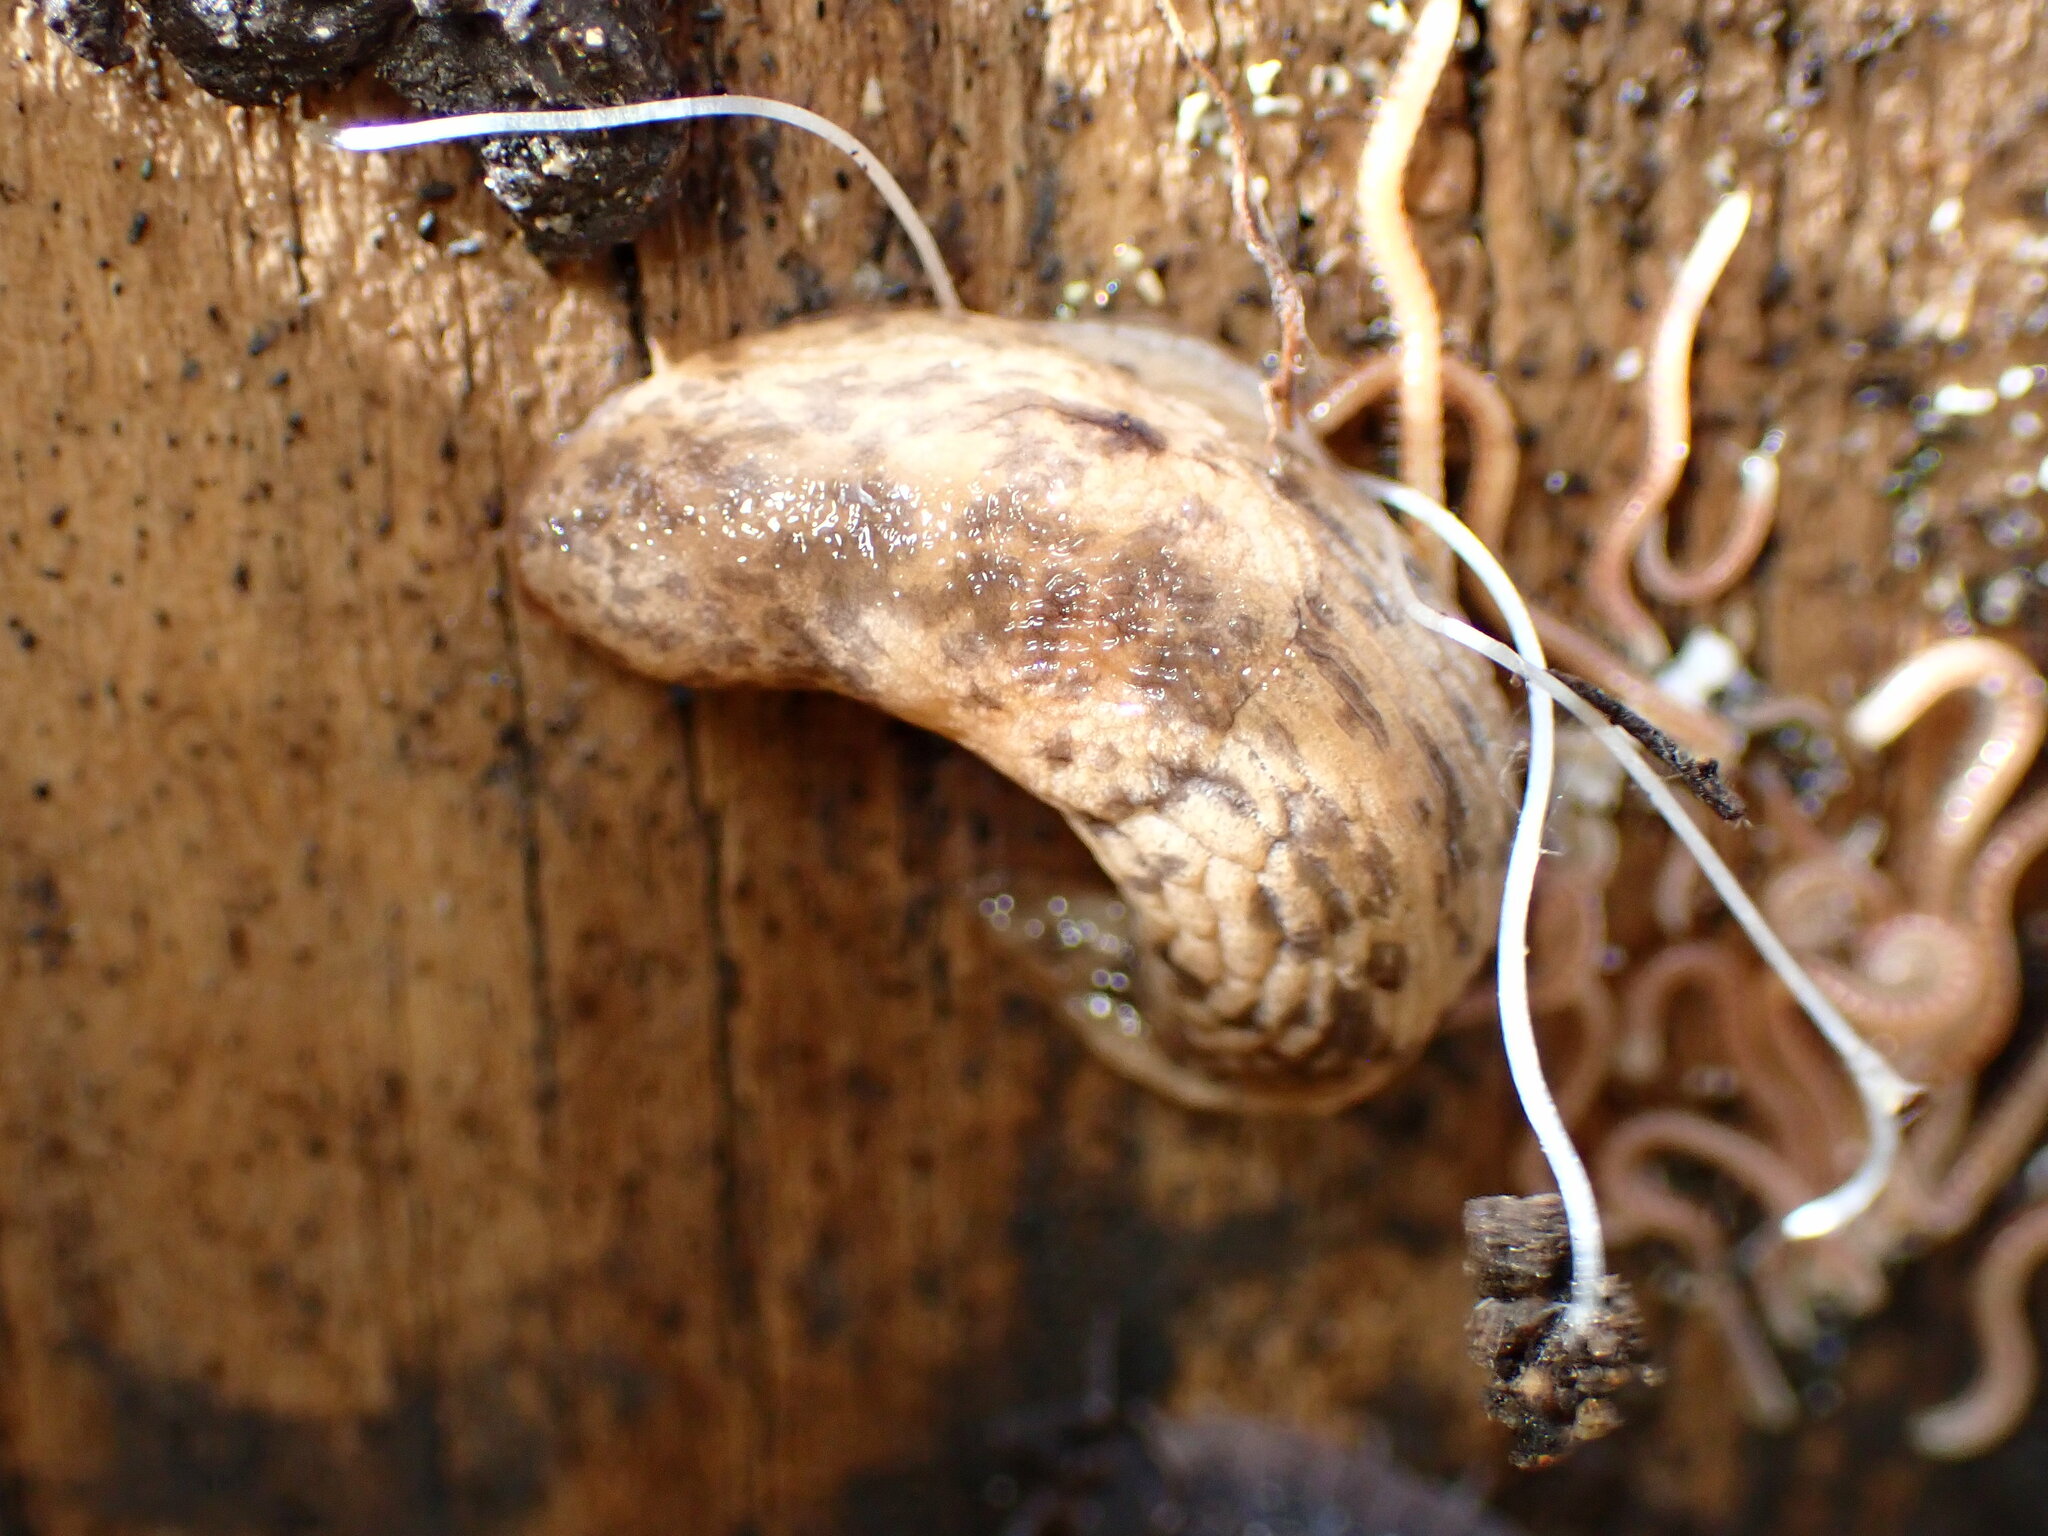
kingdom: Animalia
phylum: Mollusca
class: Gastropoda
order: Stylommatophora
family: Agriolimacidae
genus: Deroceras
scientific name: Deroceras reticulatum
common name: Gray field slug
